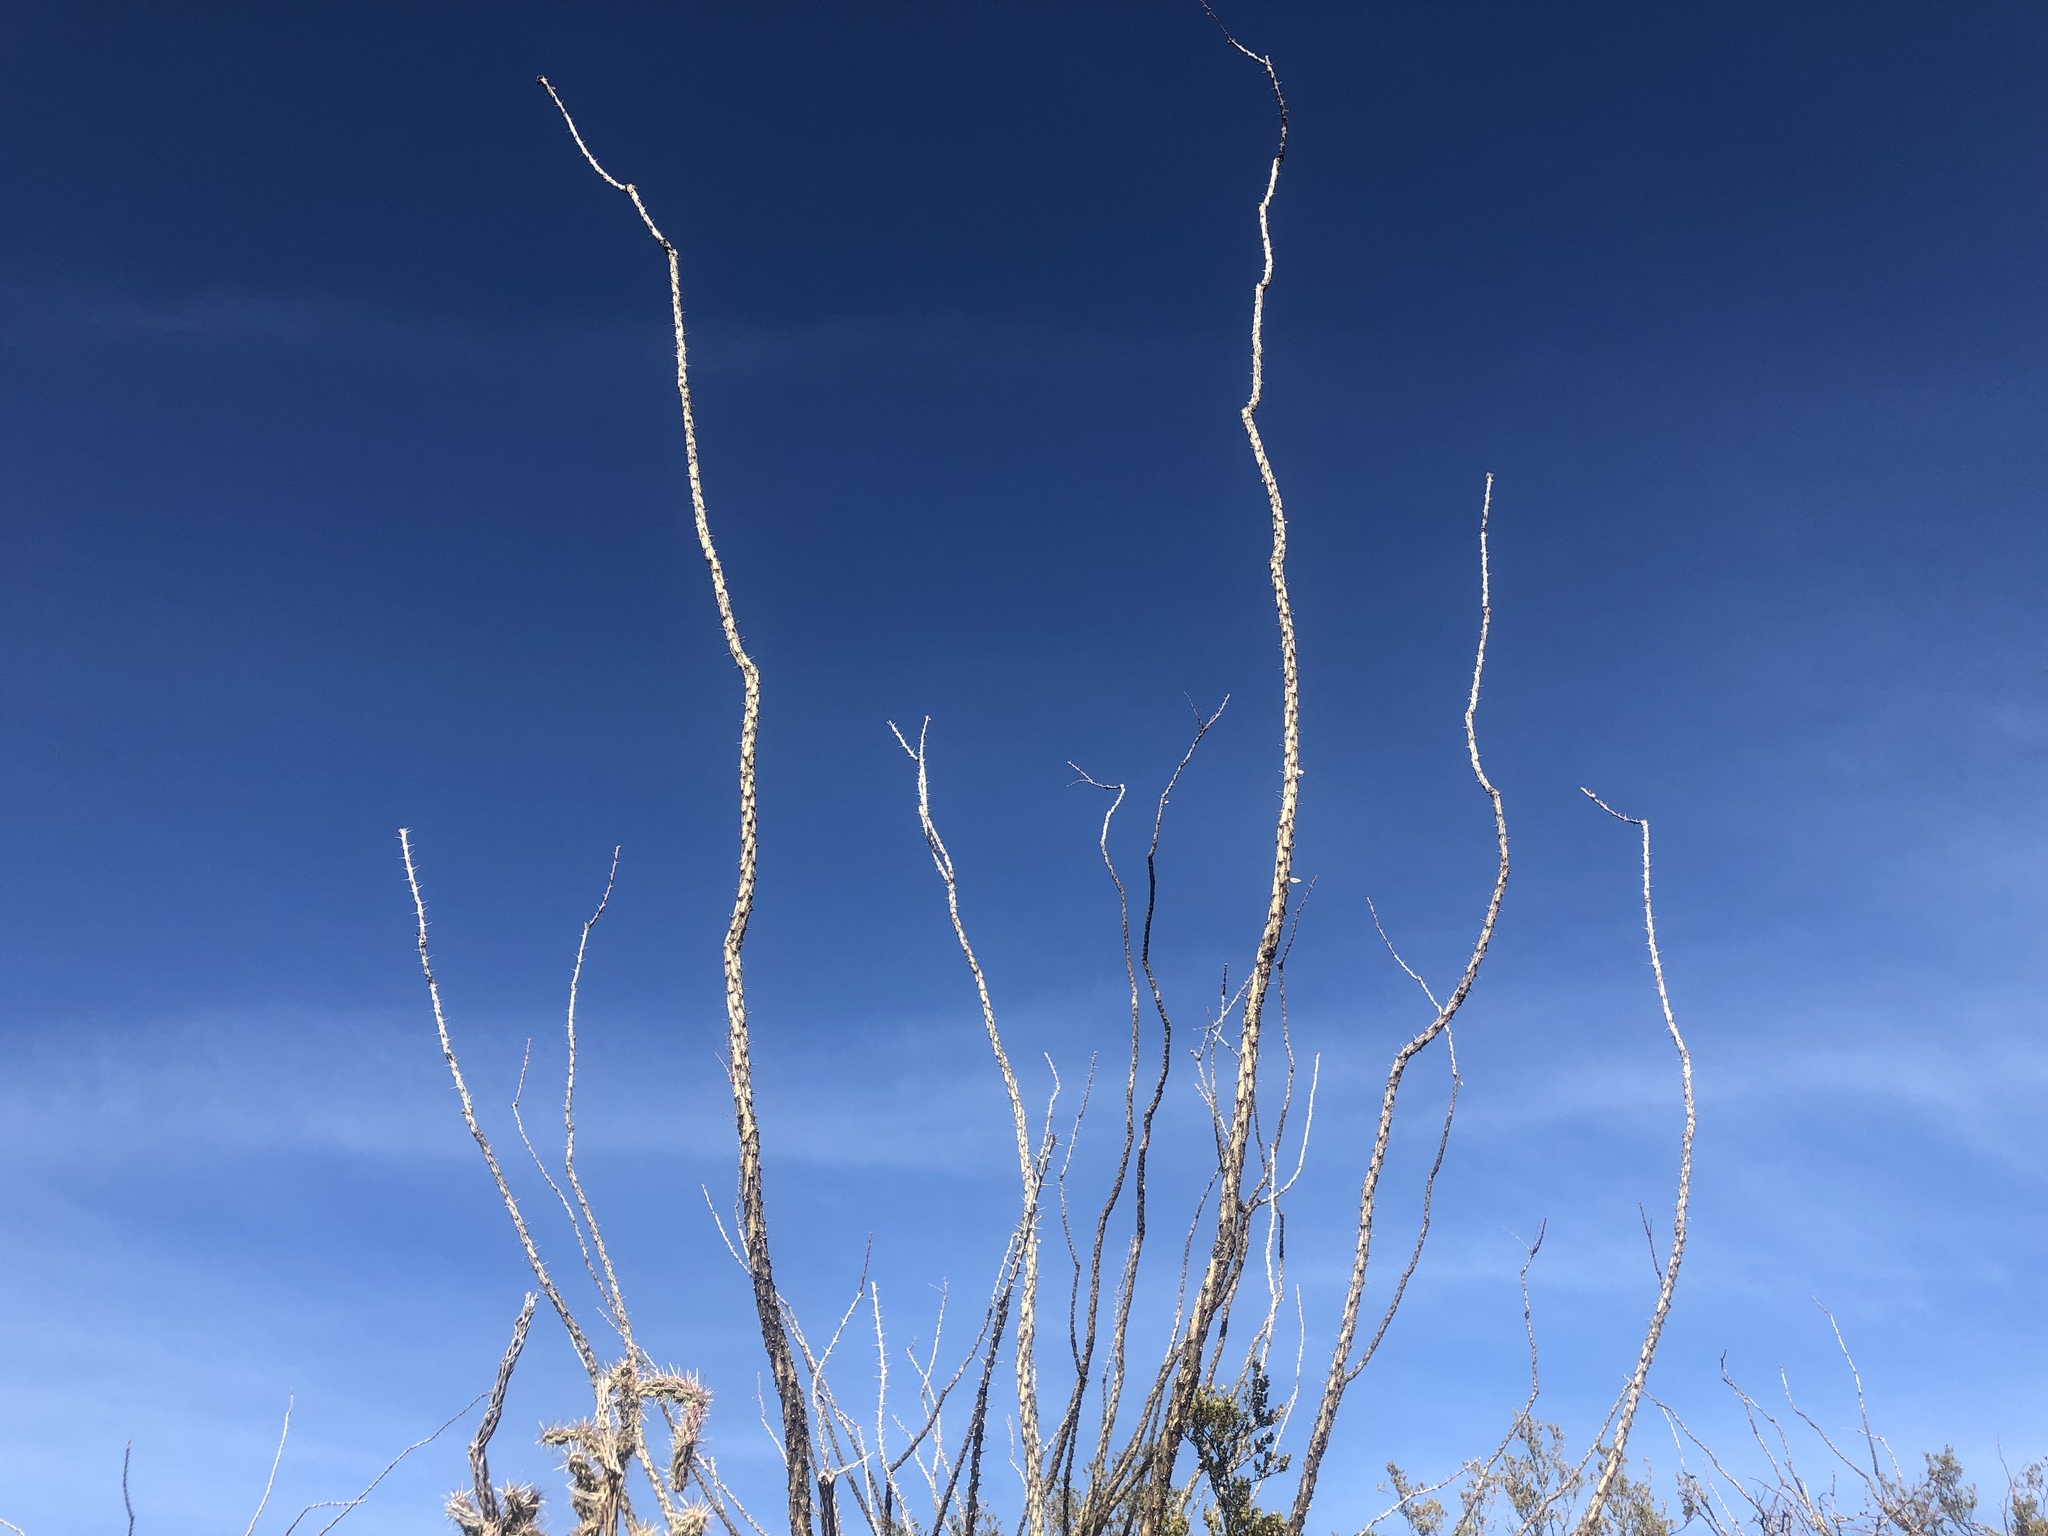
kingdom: Plantae
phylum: Tracheophyta
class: Magnoliopsida
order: Ericales
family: Fouquieriaceae
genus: Fouquieria
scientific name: Fouquieria splendens
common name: Vine-cactus
